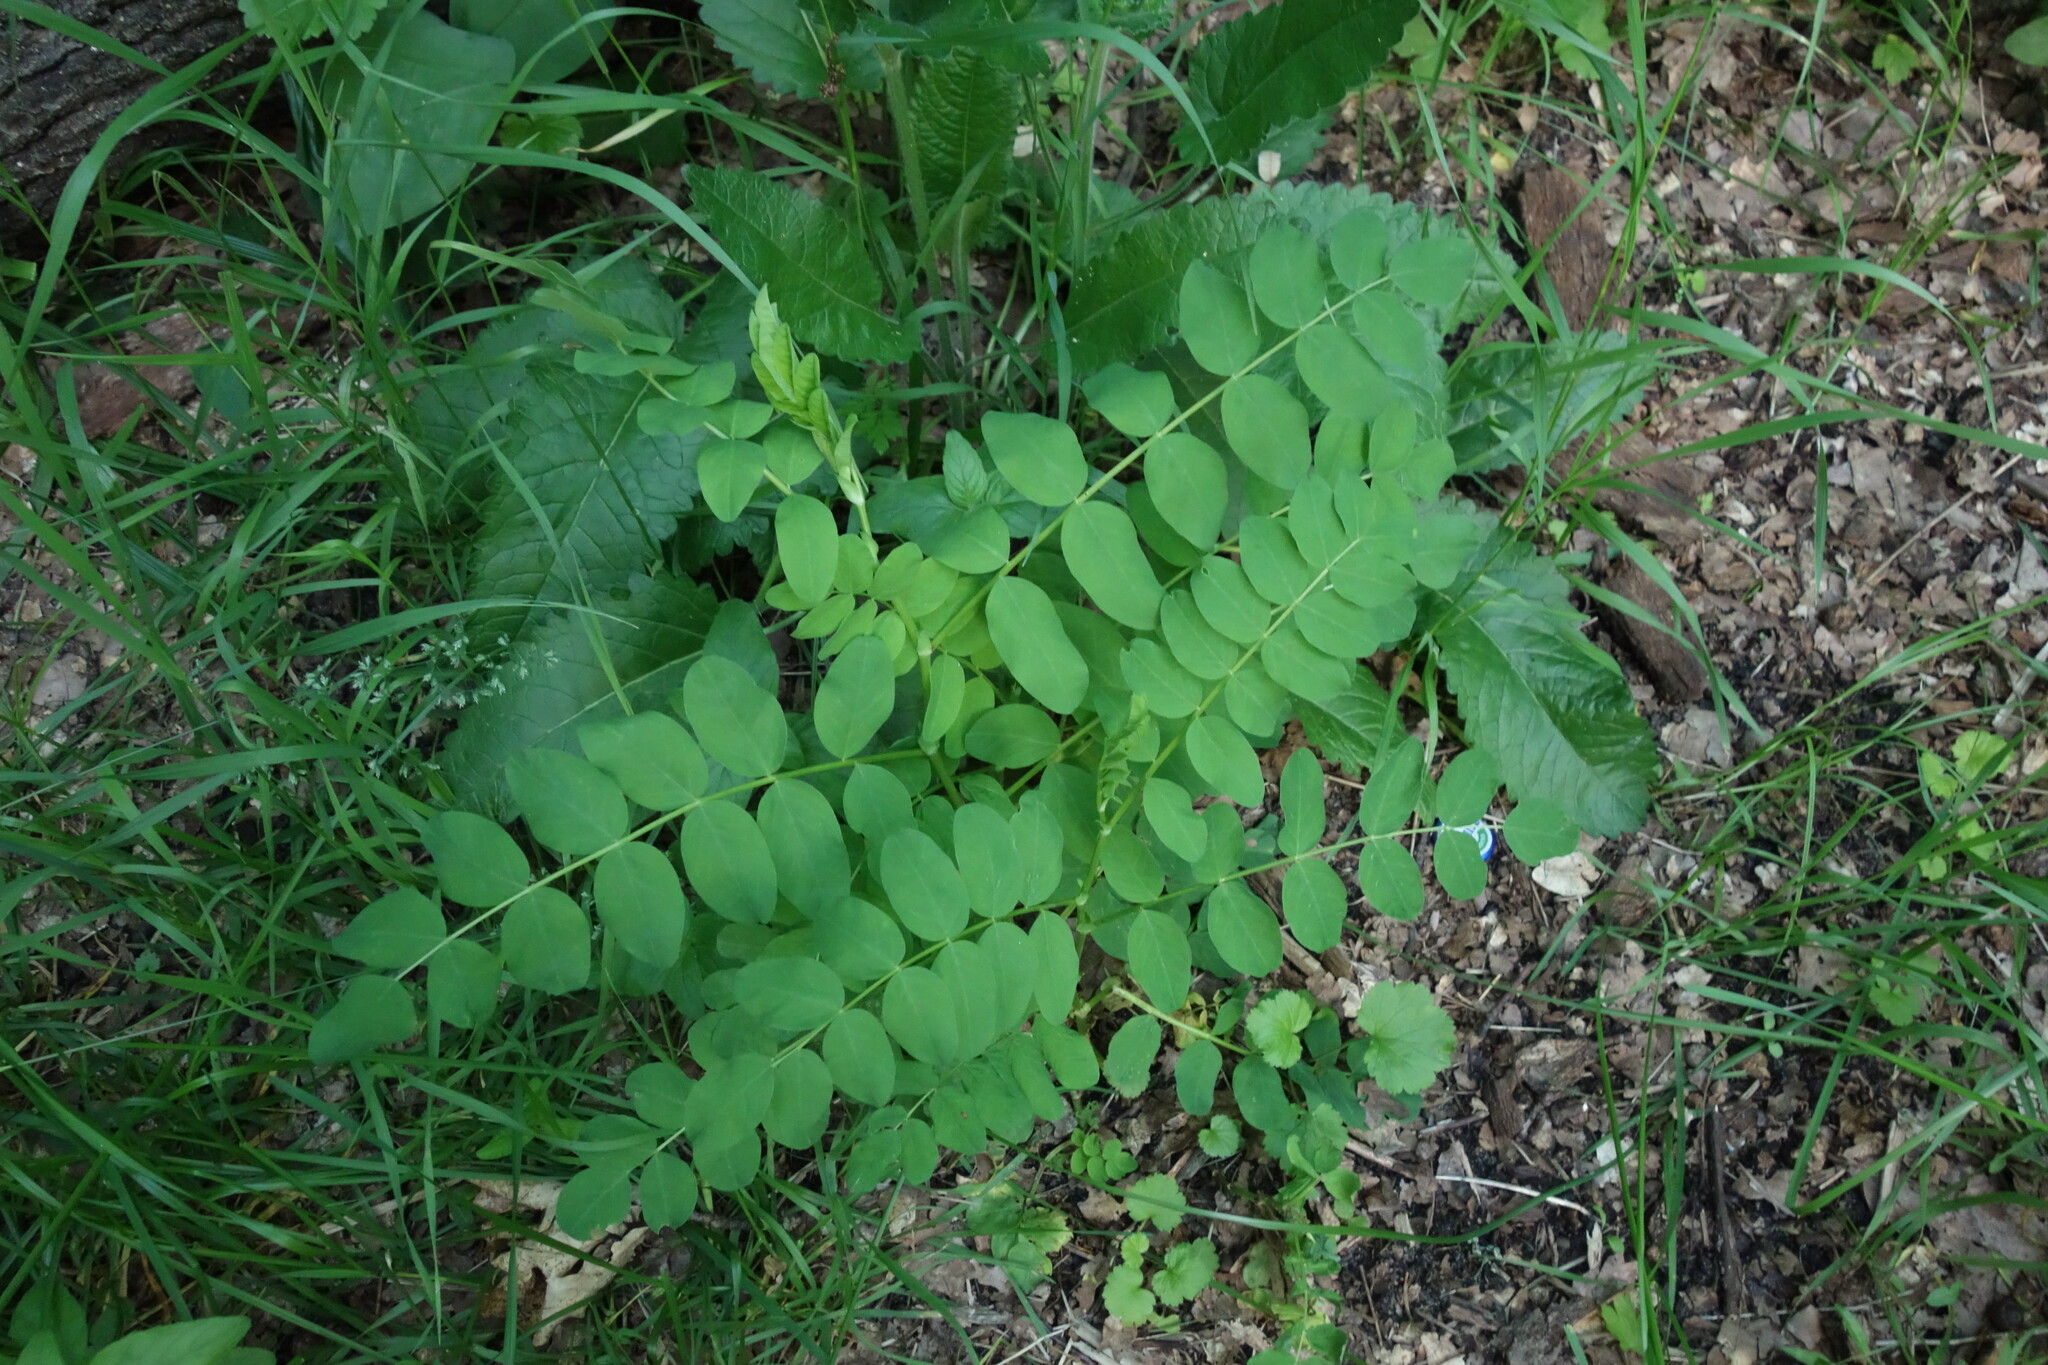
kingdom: Plantae
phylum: Tracheophyta
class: Magnoliopsida
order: Fabales
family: Fabaceae
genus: Astragalus
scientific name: Astragalus glycyphyllos
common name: Wild liquorice
